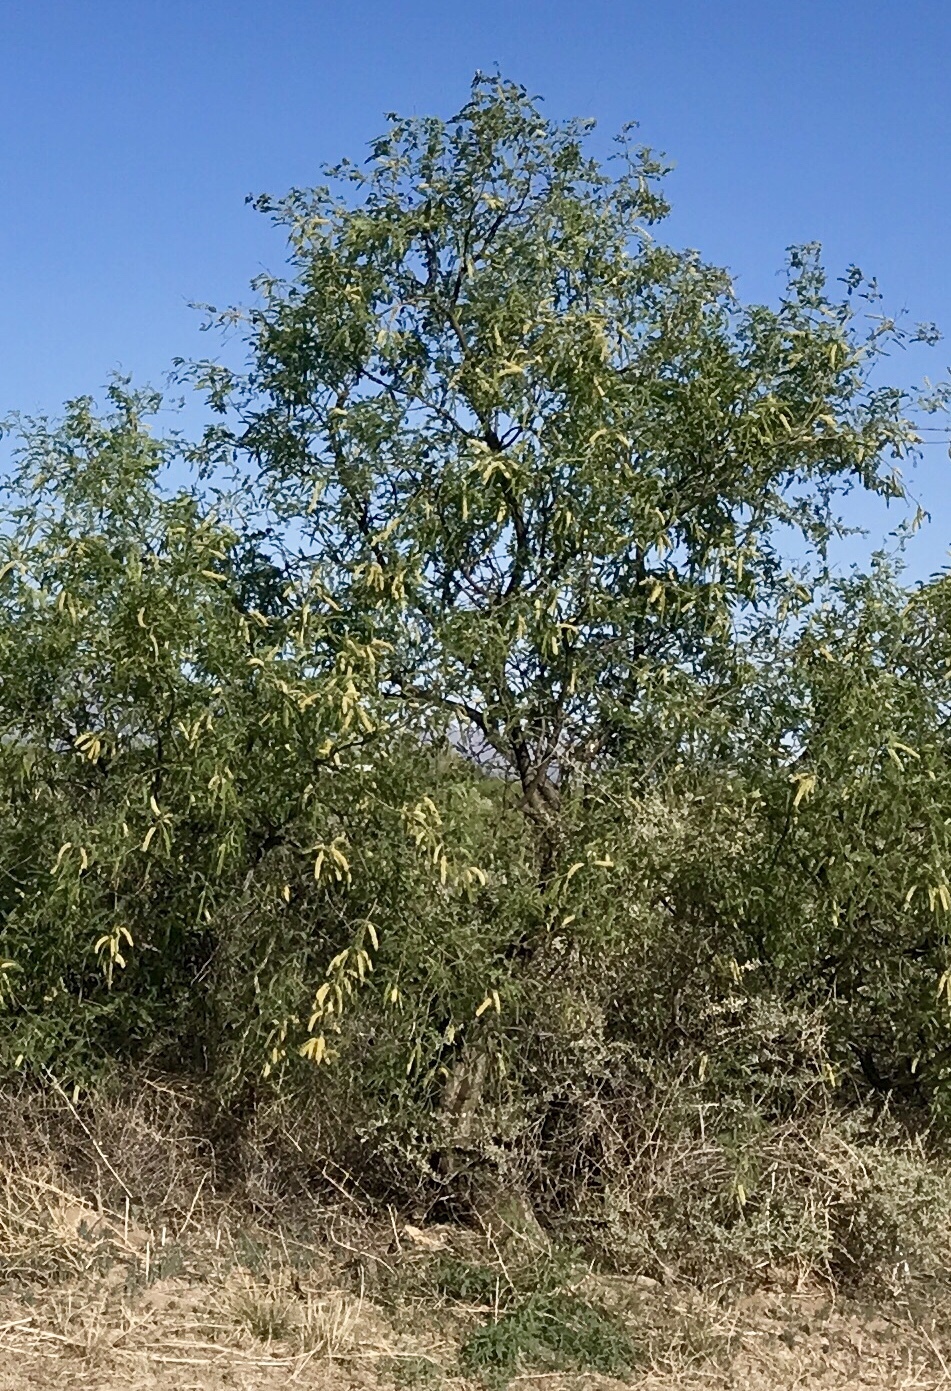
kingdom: Plantae
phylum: Tracheophyta
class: Magnoliopsida
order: Fabales
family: Fabaceae
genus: Prosopis
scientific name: Prosopis velutina
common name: Velvet mesquite
